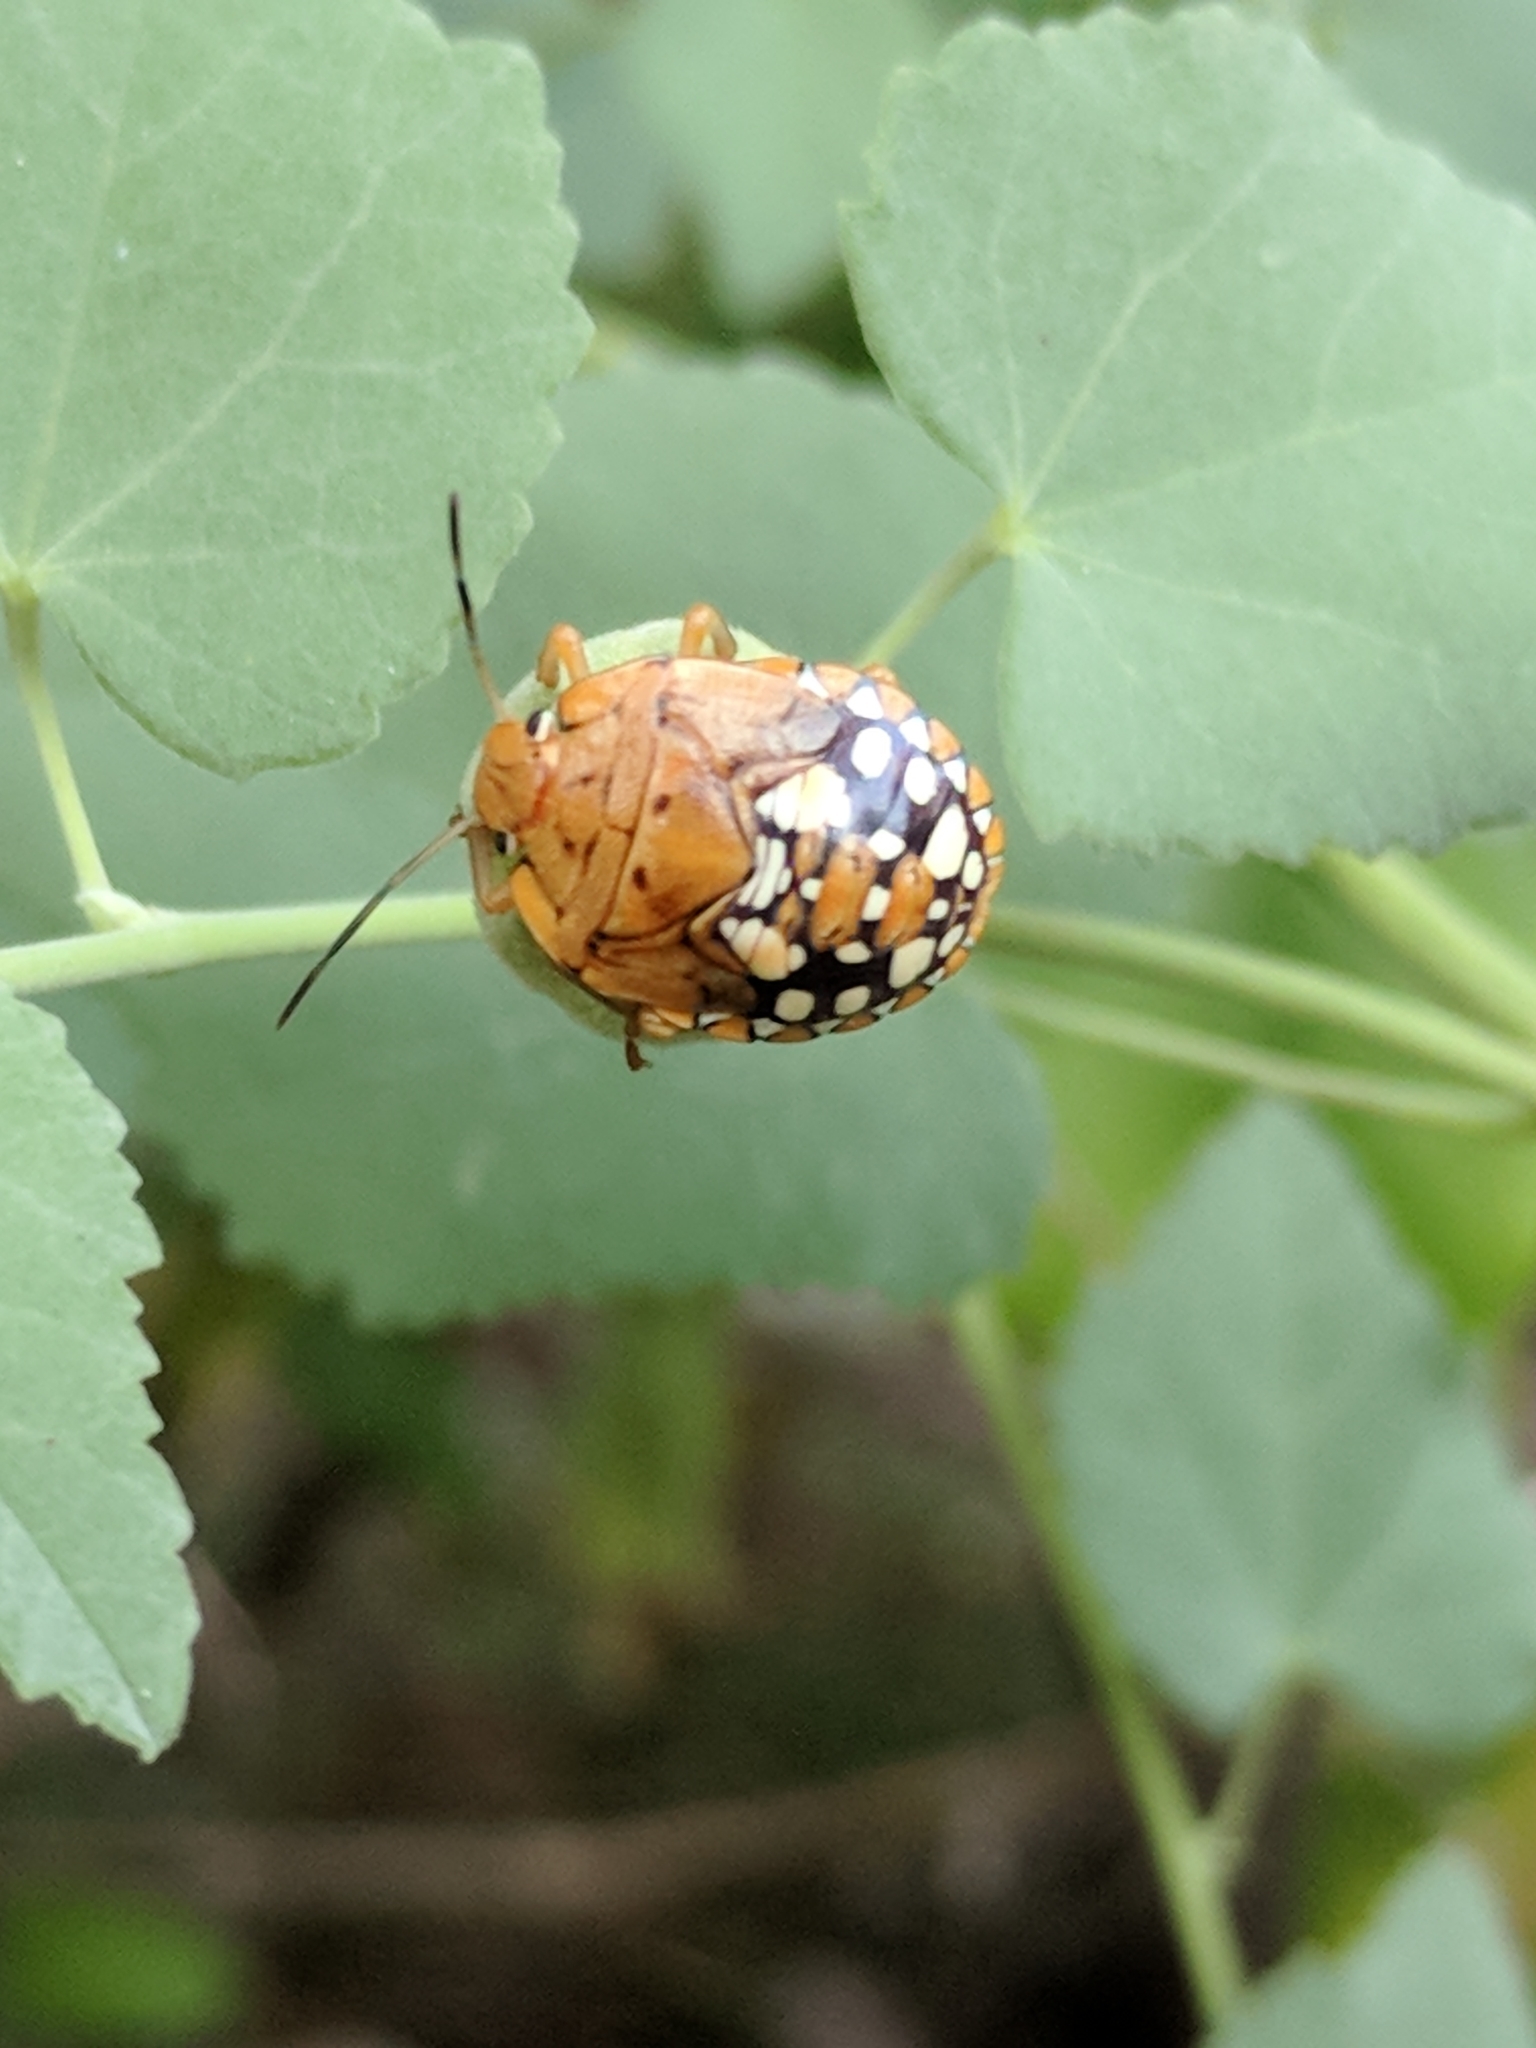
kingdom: Animalia
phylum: Arthropoda
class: Insecta
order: Hemiptera
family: Pentatomidae
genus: Acrosternum
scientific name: Acrosternum marginatum
